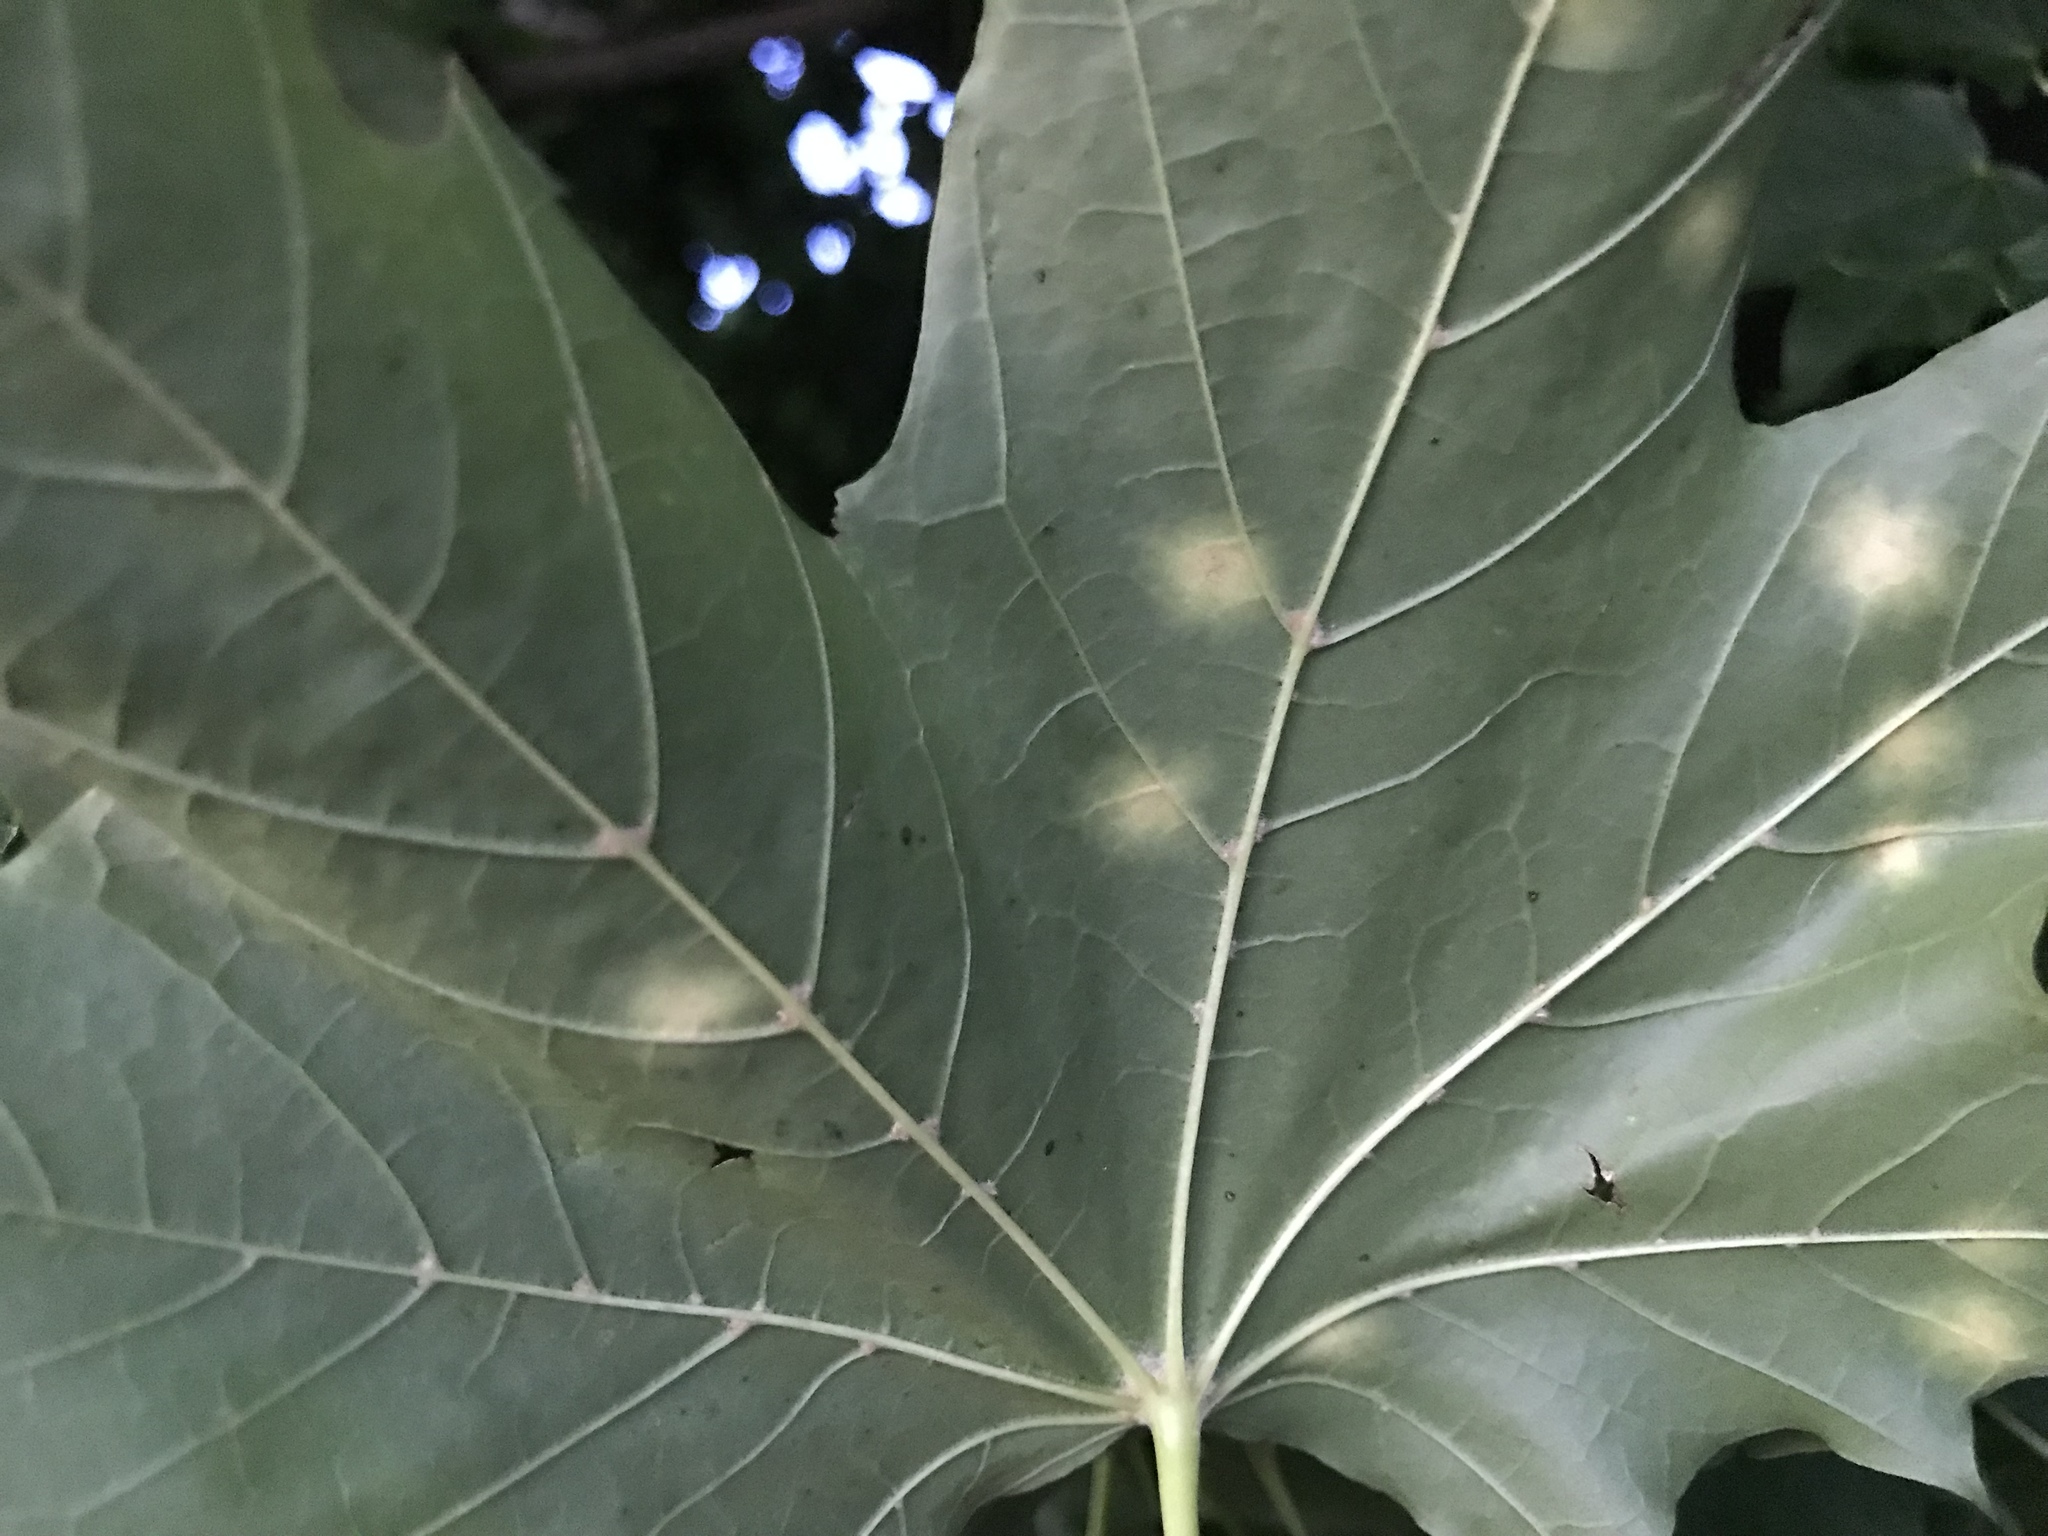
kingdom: Fungi
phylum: Ascomycota
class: Leotiomycetes
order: Rhytismatales
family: Rhytismataceae
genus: Rhytisma
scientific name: Rhytisma acerinum
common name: European tar spot
